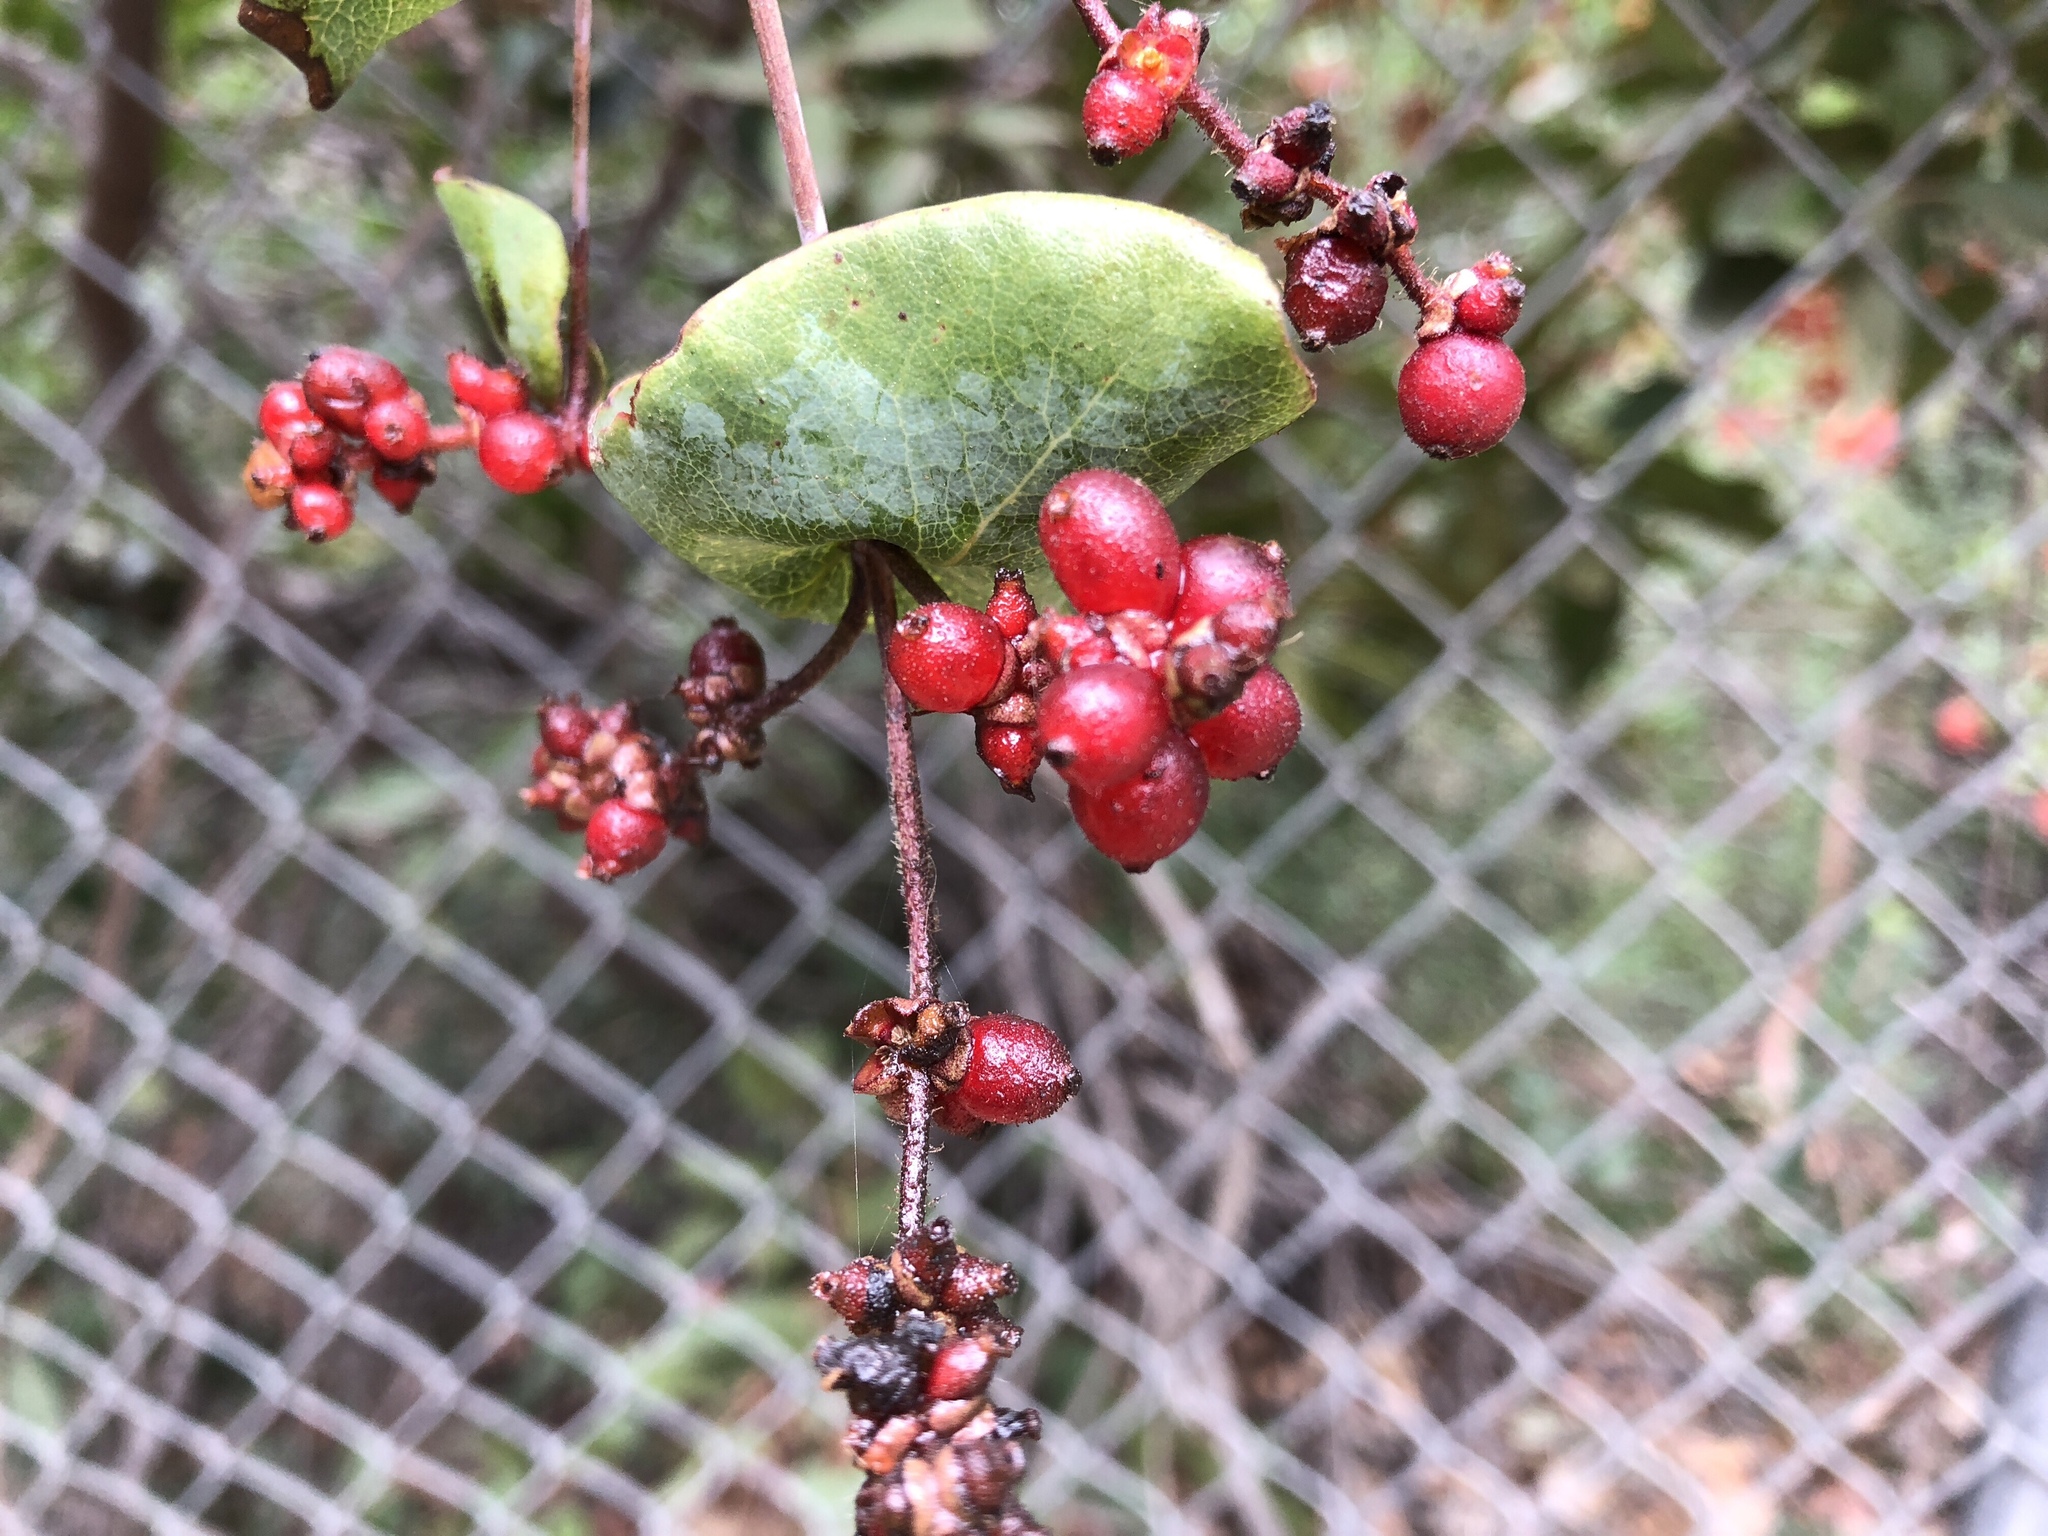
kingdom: Plantae
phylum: Tracheophyta
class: Magnoliopsida
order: Dipsacales
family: Caprifoliaceae
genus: Lonicera
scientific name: Lonicera hispidula
